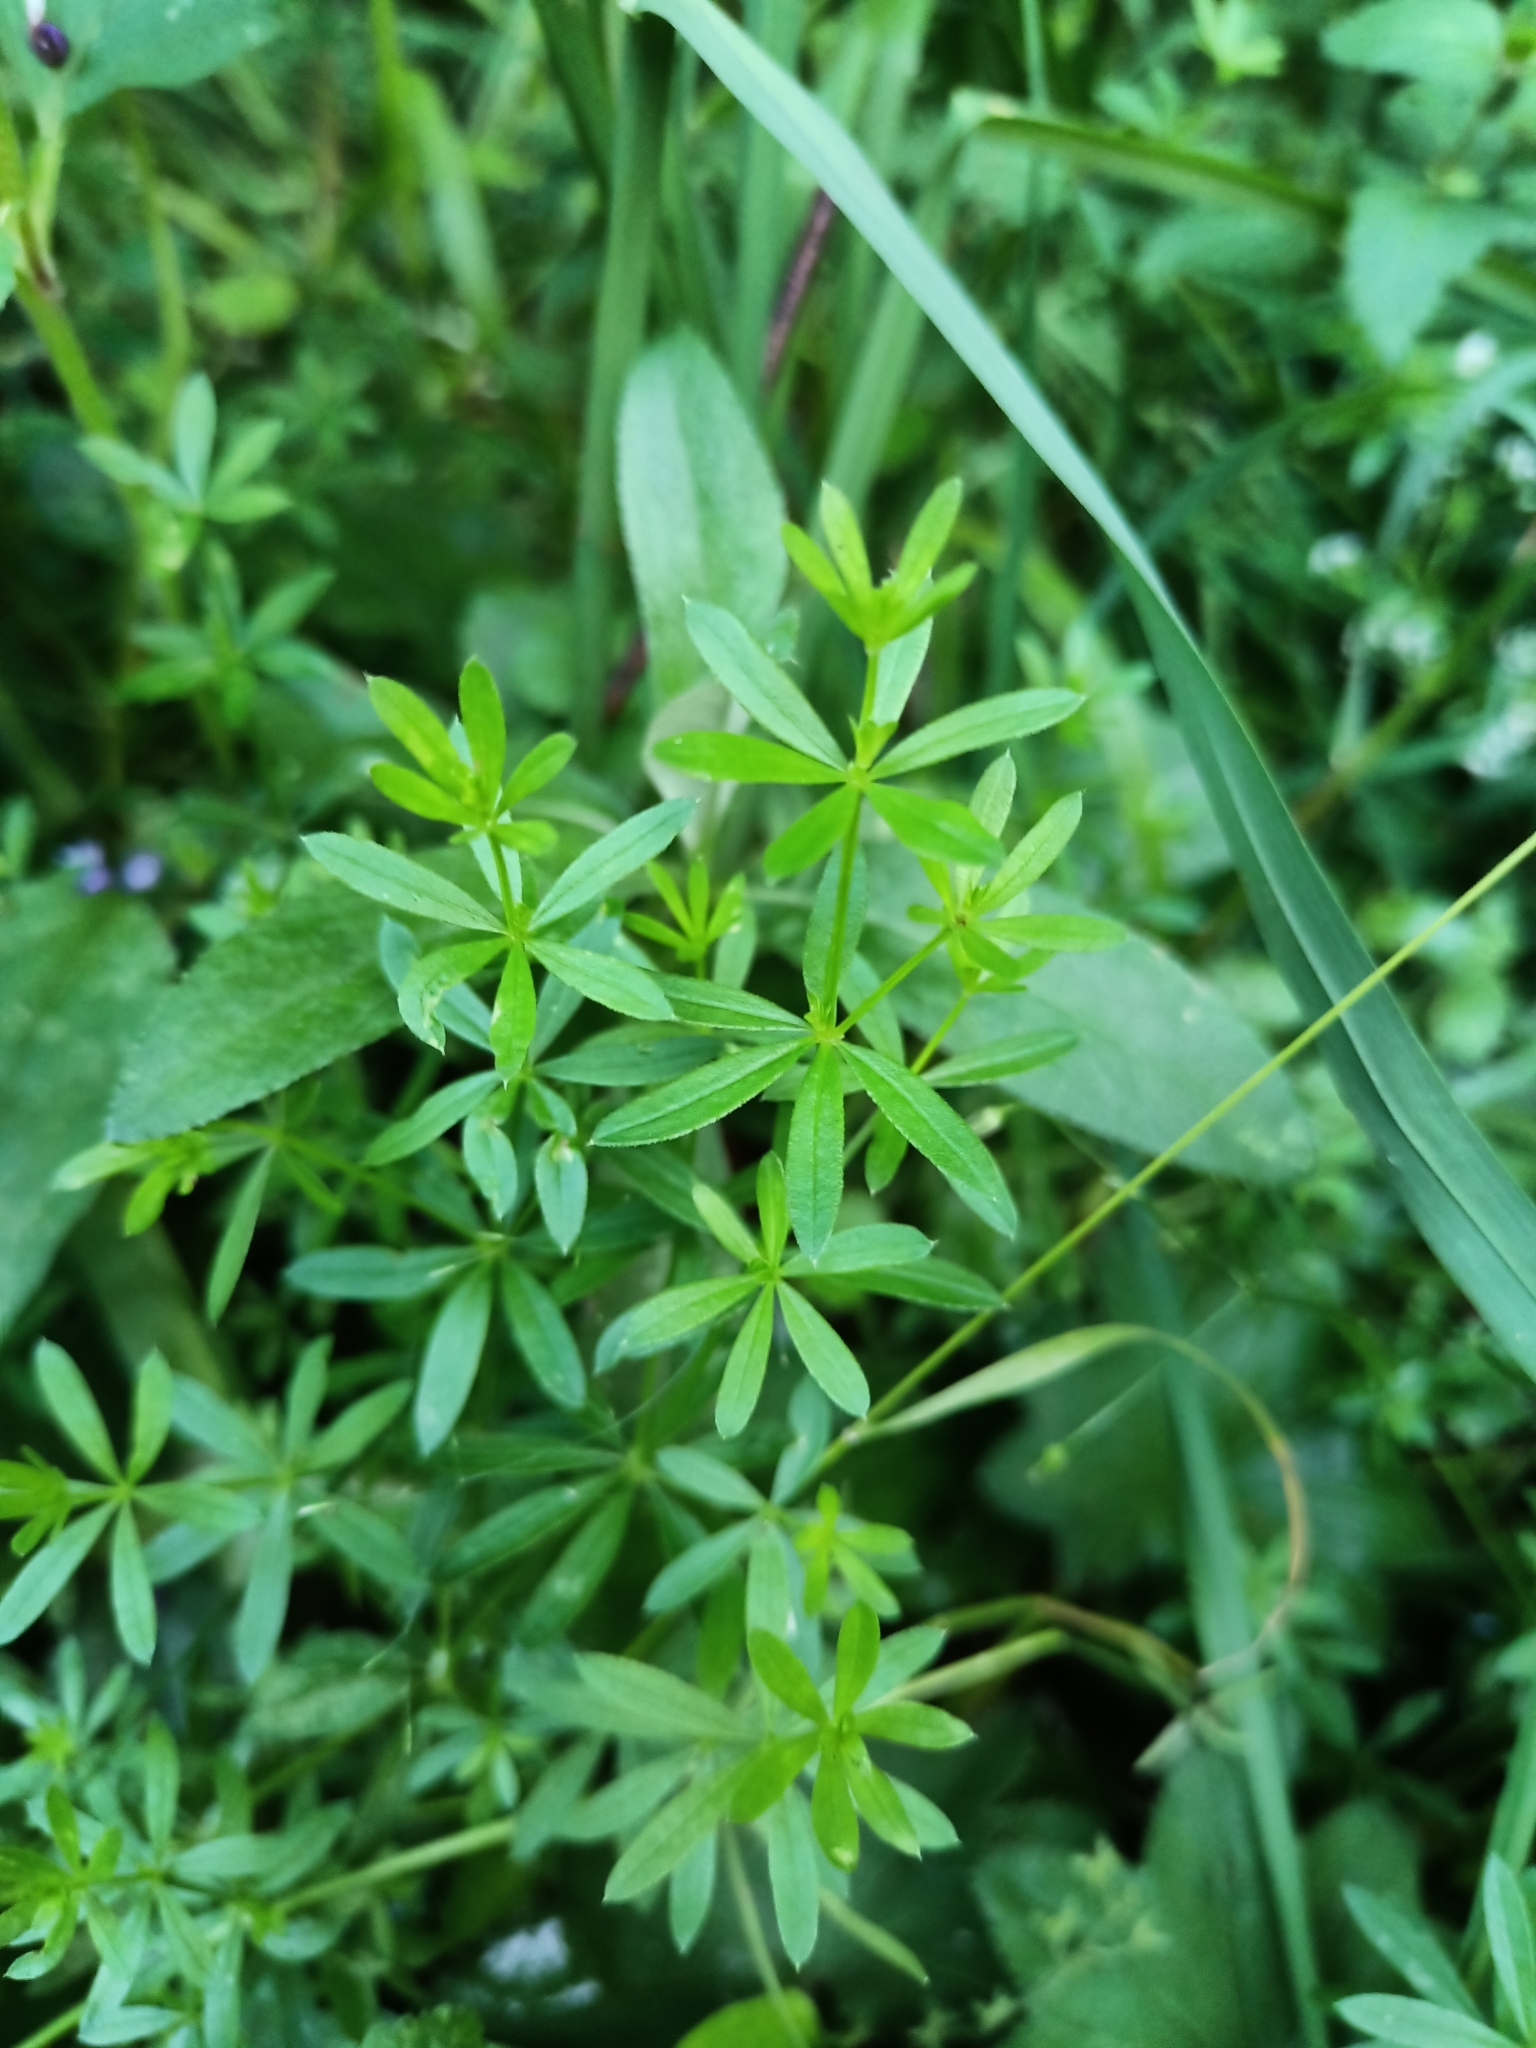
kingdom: Plantae
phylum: Tracheophyta
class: Magnoliopsida
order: Gentianales
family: Rubiaceae
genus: Galium
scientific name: Galium mollugo
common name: Hedge bedstraw
